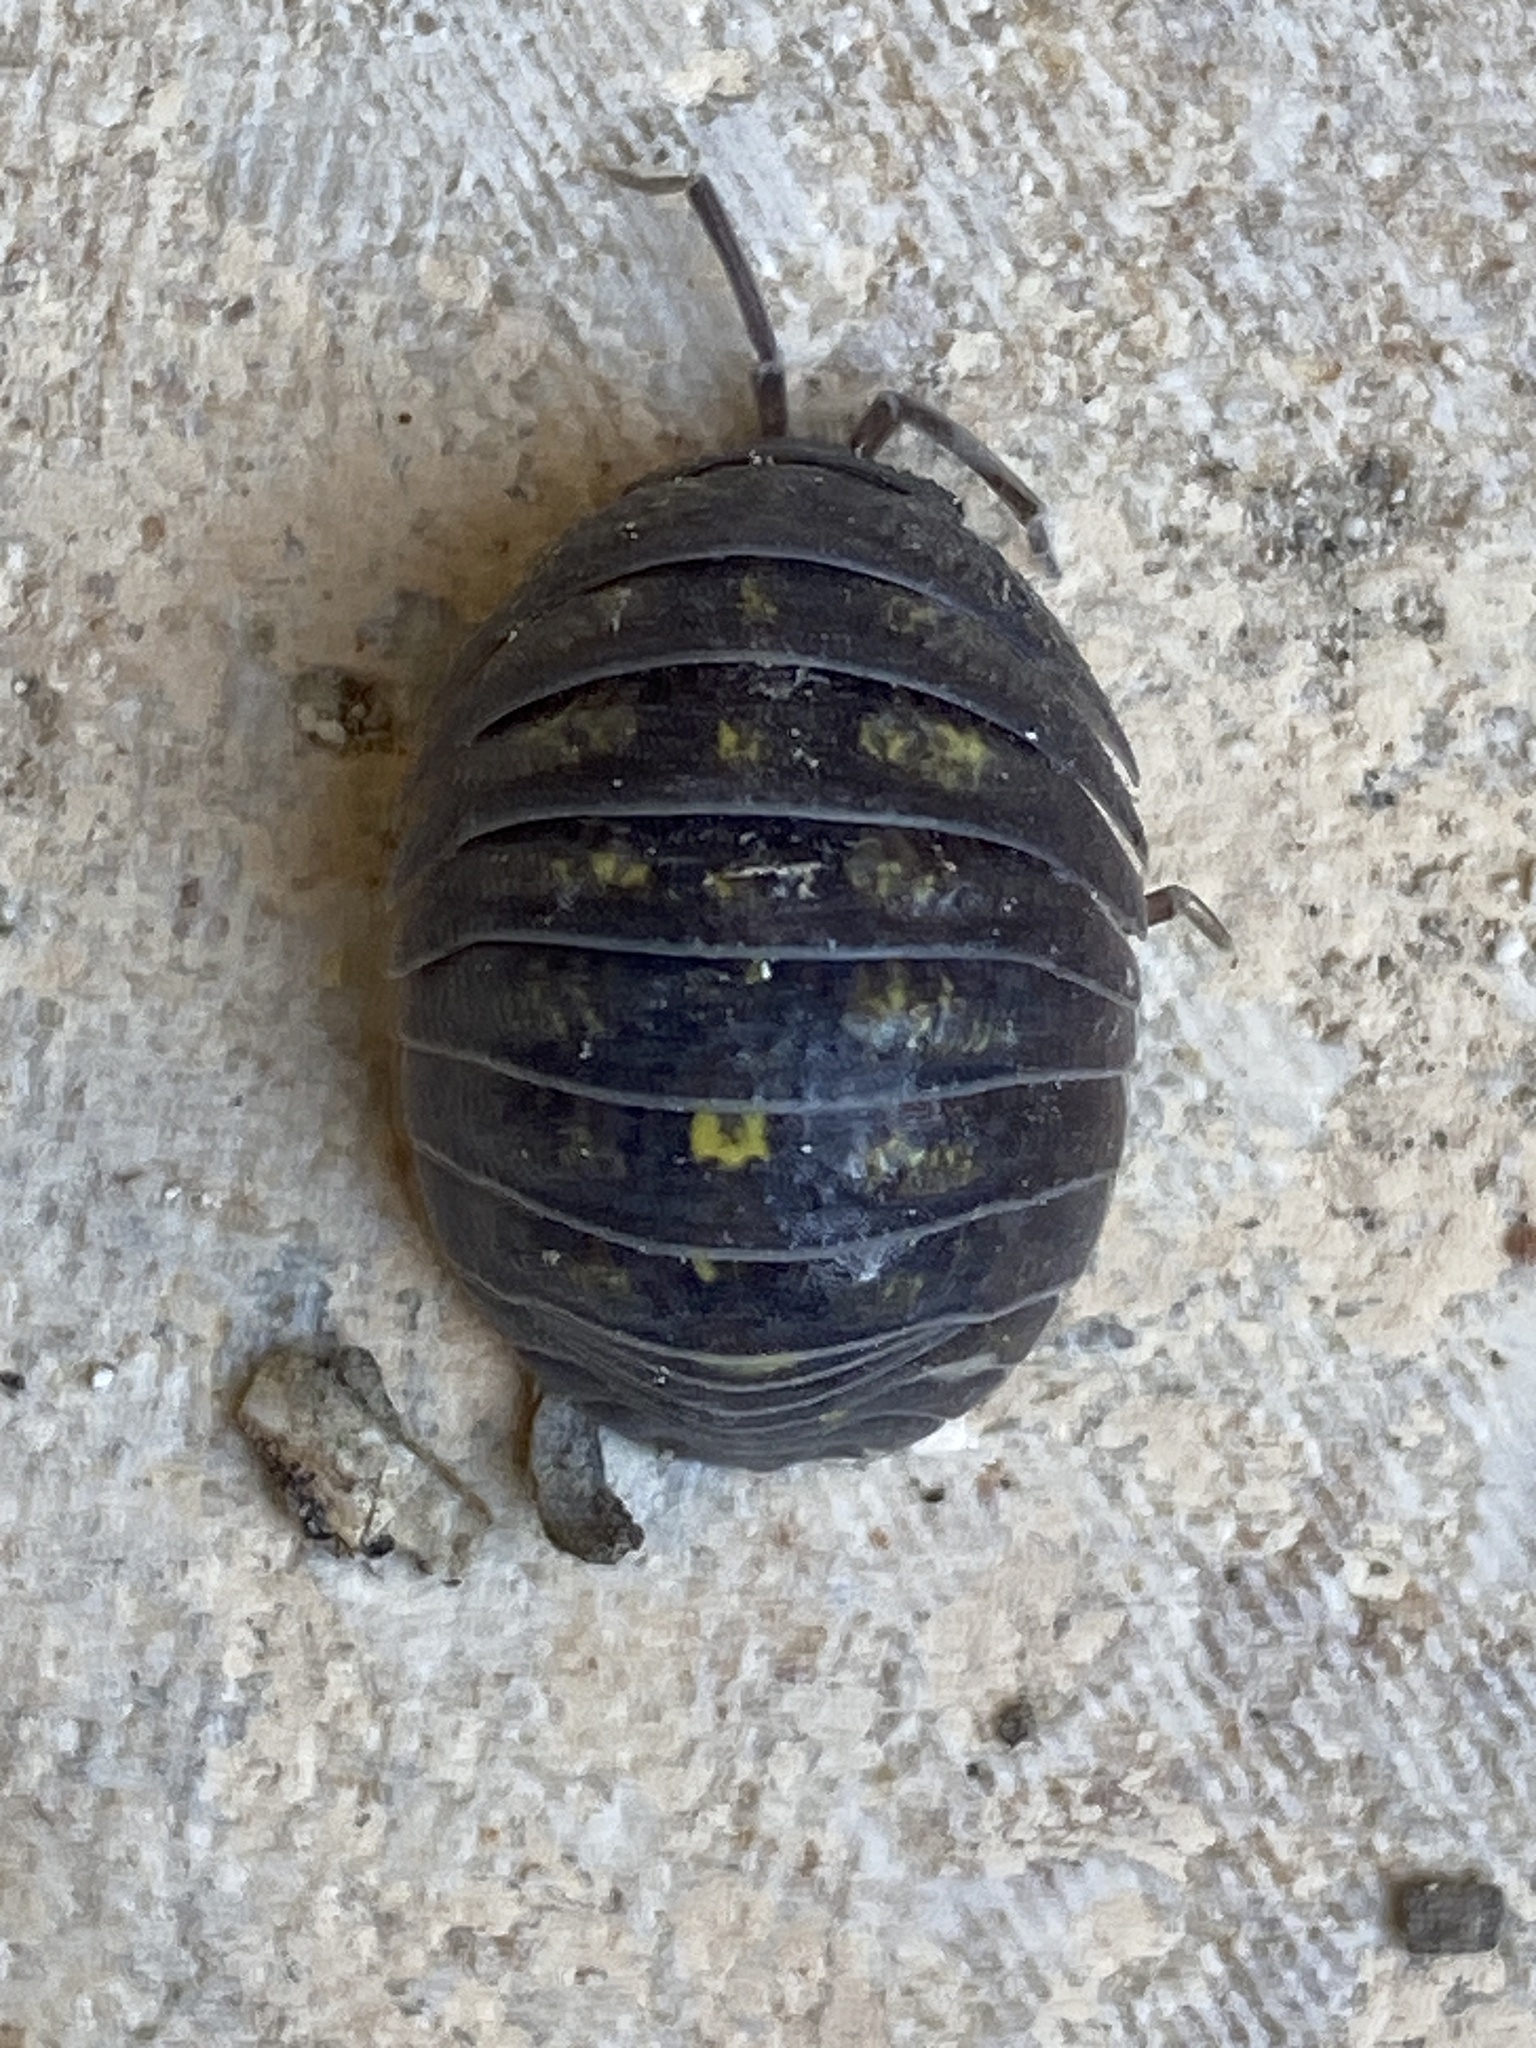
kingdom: Animalia
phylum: Arthropoda
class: Malacostraca
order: Isopoda
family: Armadillidiidae
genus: Armadillidium
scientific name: Armadillidium granulatum
